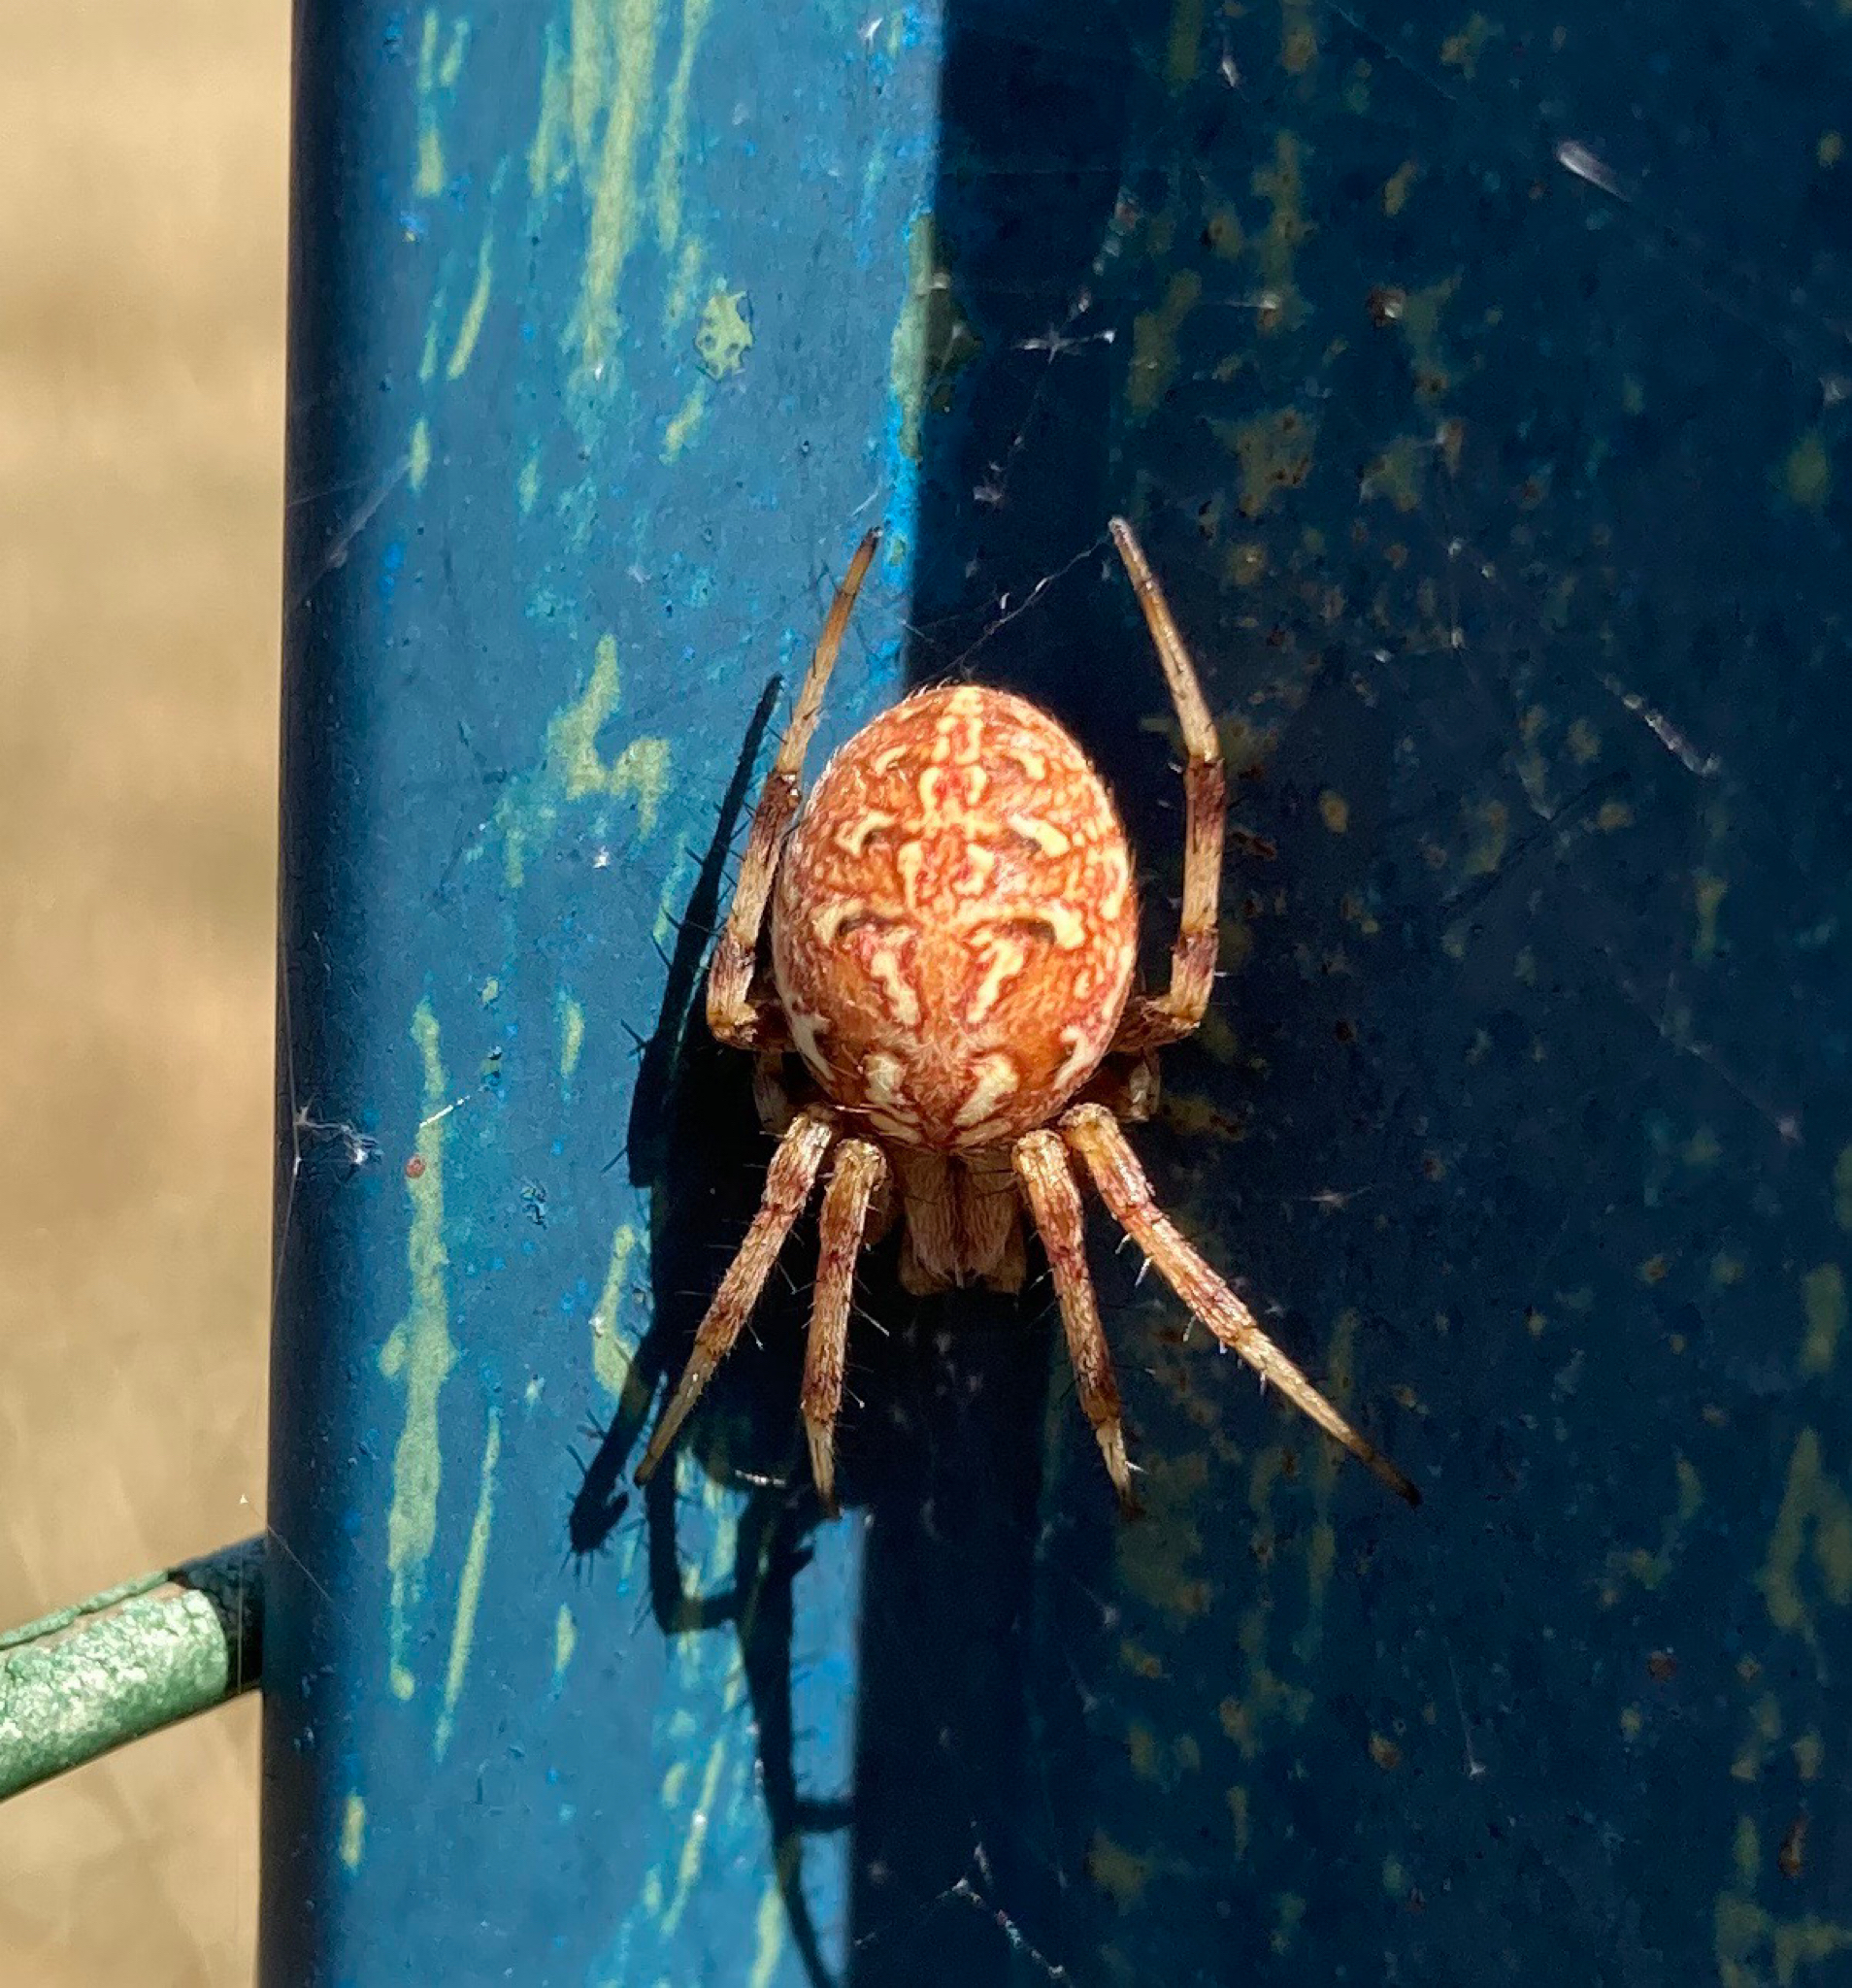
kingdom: Animalia
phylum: Arthropoda
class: Arachnida
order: Araneae
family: Araneidae
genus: Neoscona
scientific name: Neoscona byzanthina
